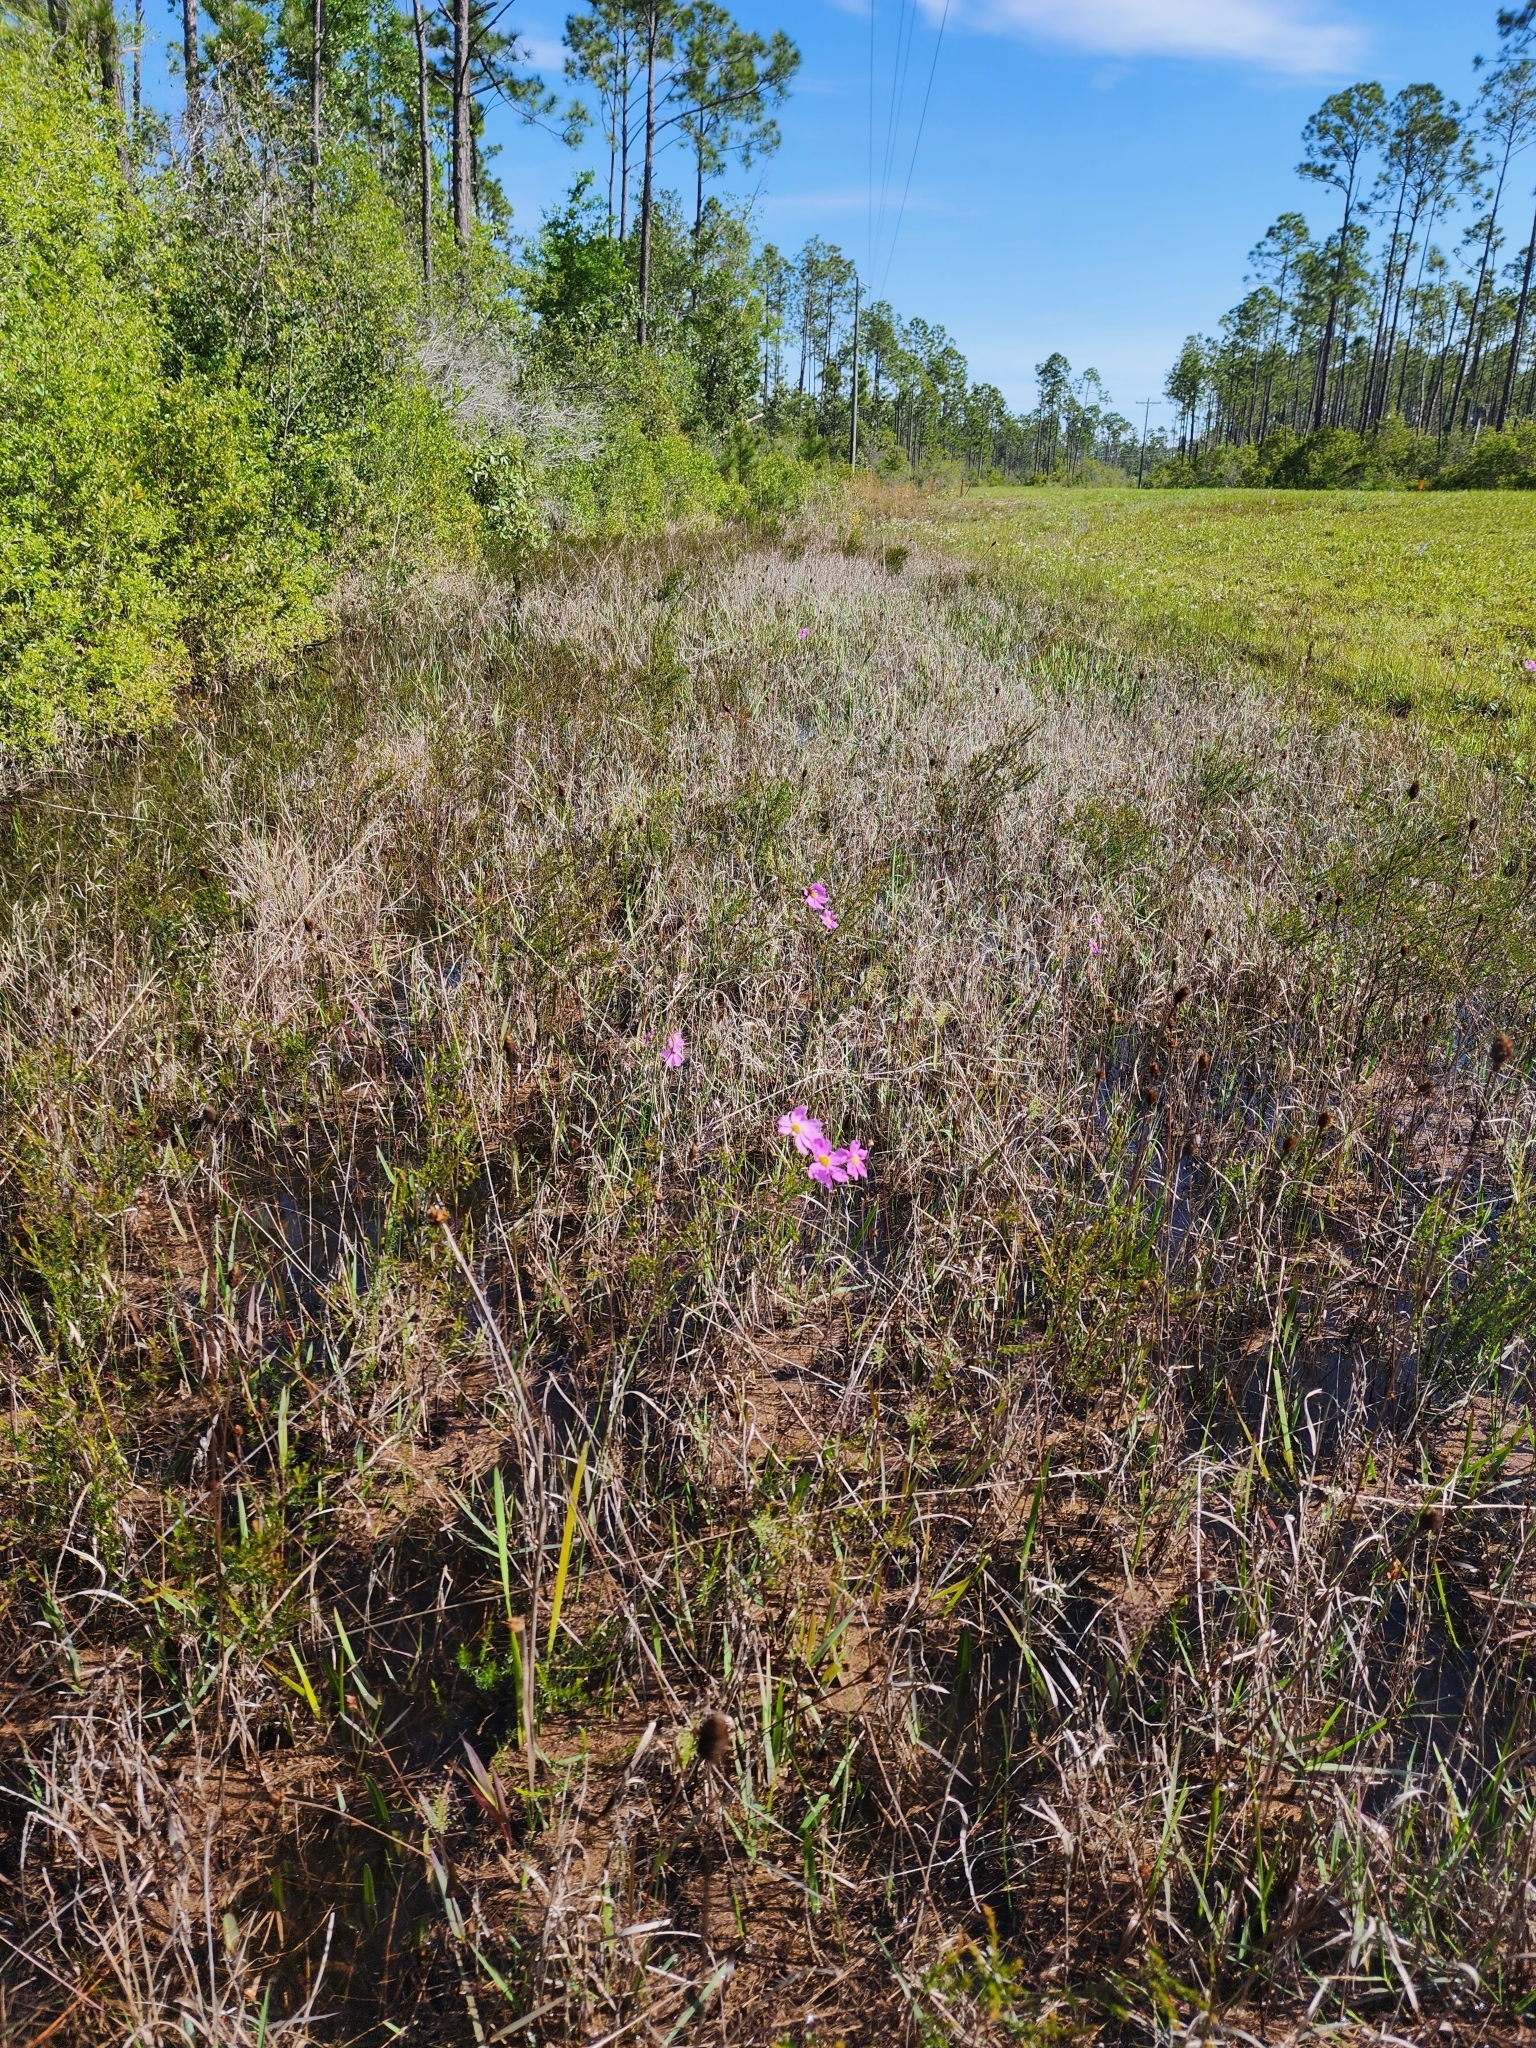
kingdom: Plantae
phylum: Tracheophyta
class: Magnoliopsida
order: Asterales
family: Asteraceae
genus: Coreopsis
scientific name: Coreopsis nudata
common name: Purple tickseed
